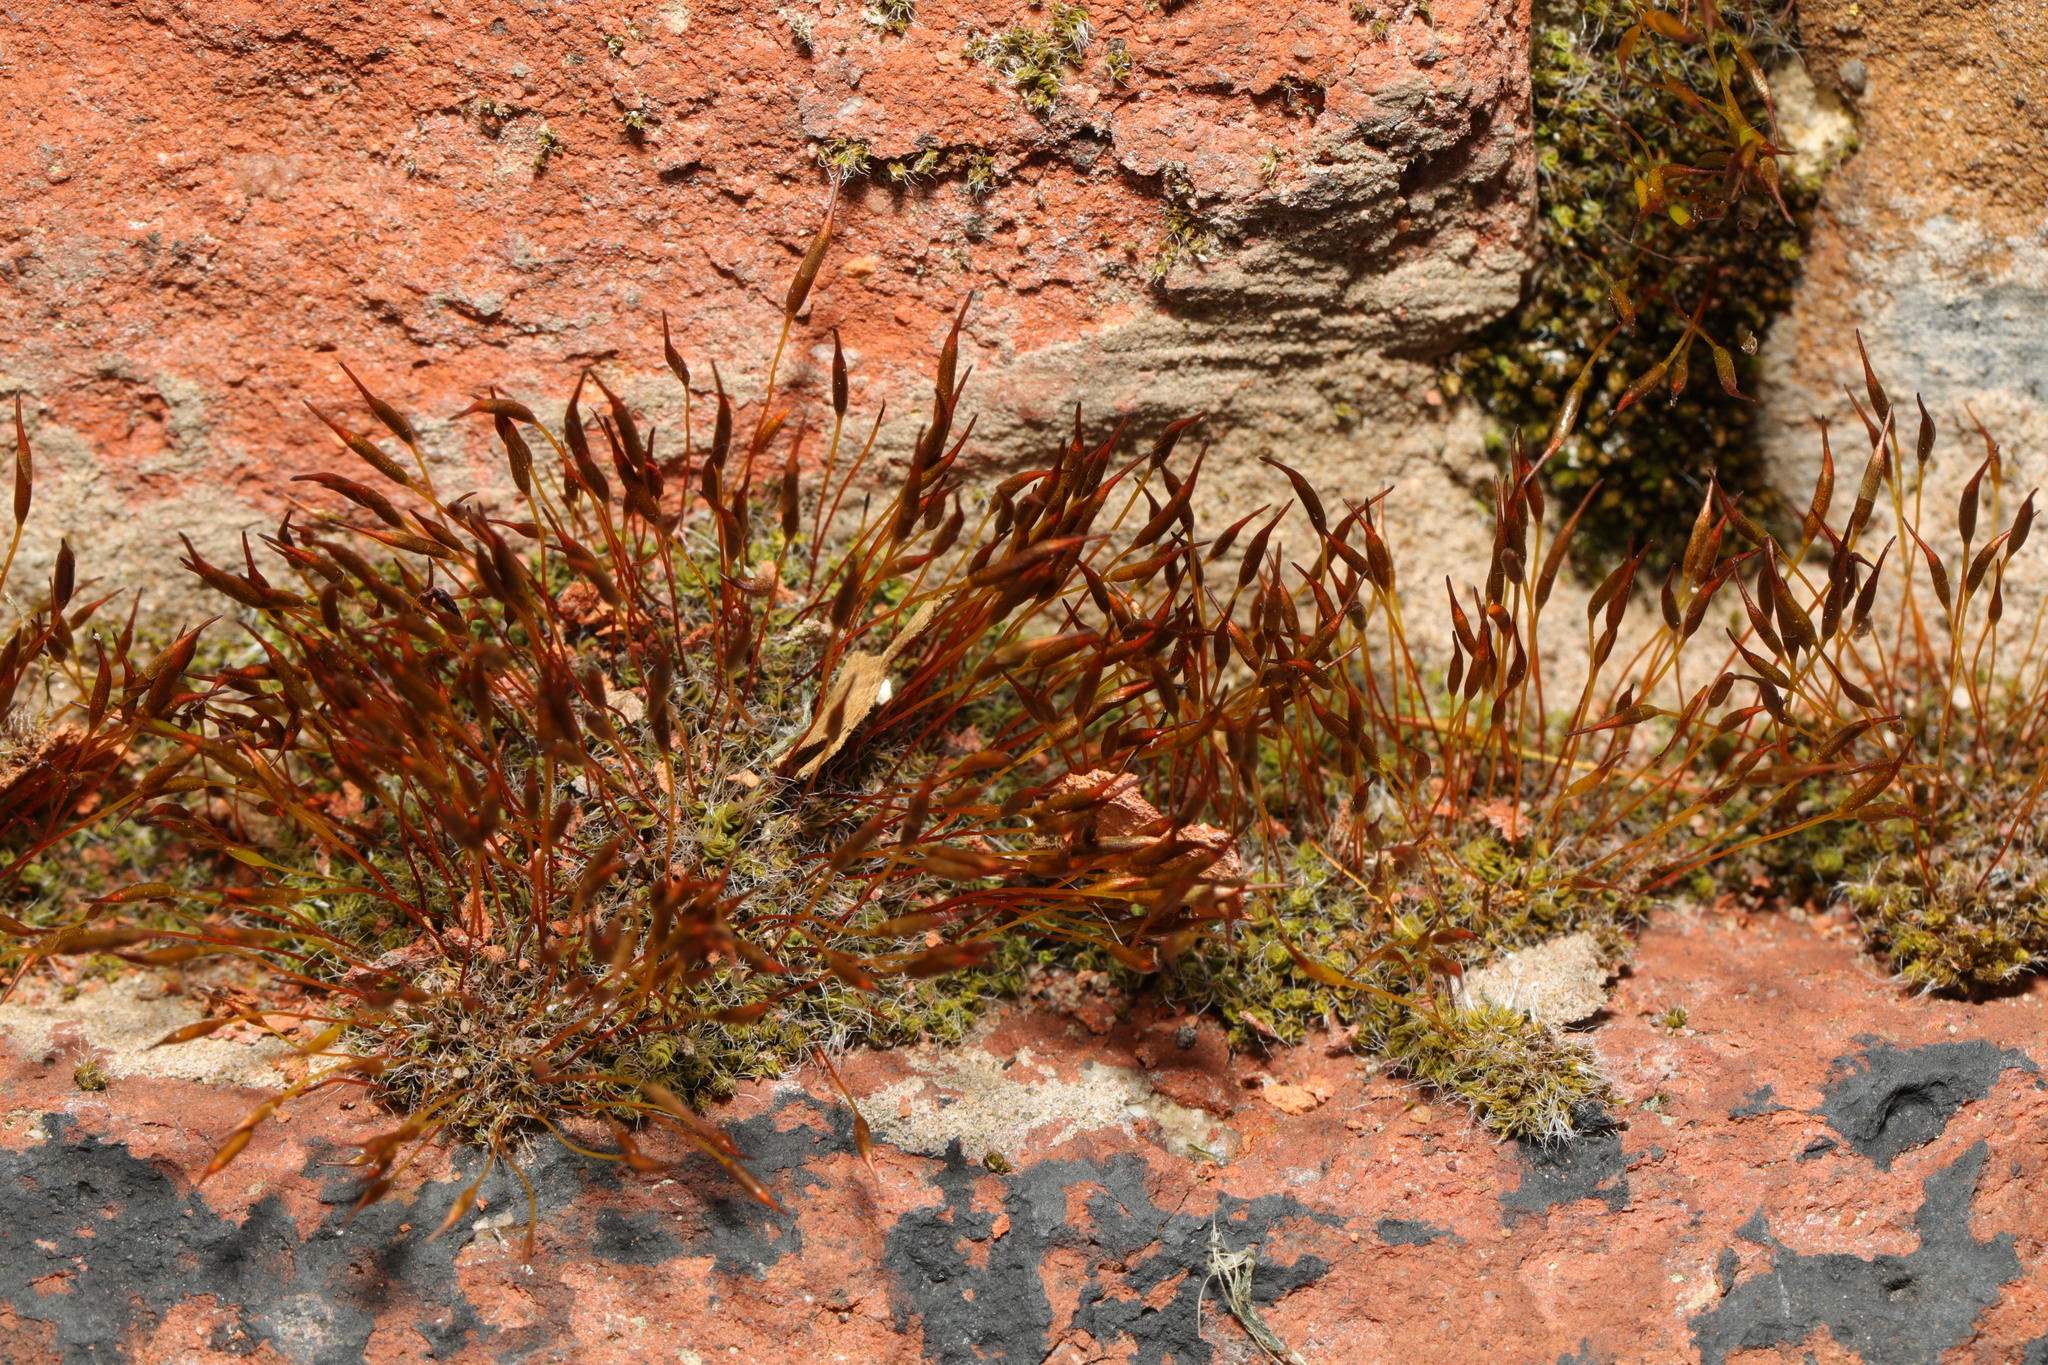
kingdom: Plantae
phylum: Bryophyta
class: Bryopsida
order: Pottiales
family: Pottiaceae
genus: Tortula
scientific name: Tortula muralis
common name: Wall screw-moss
